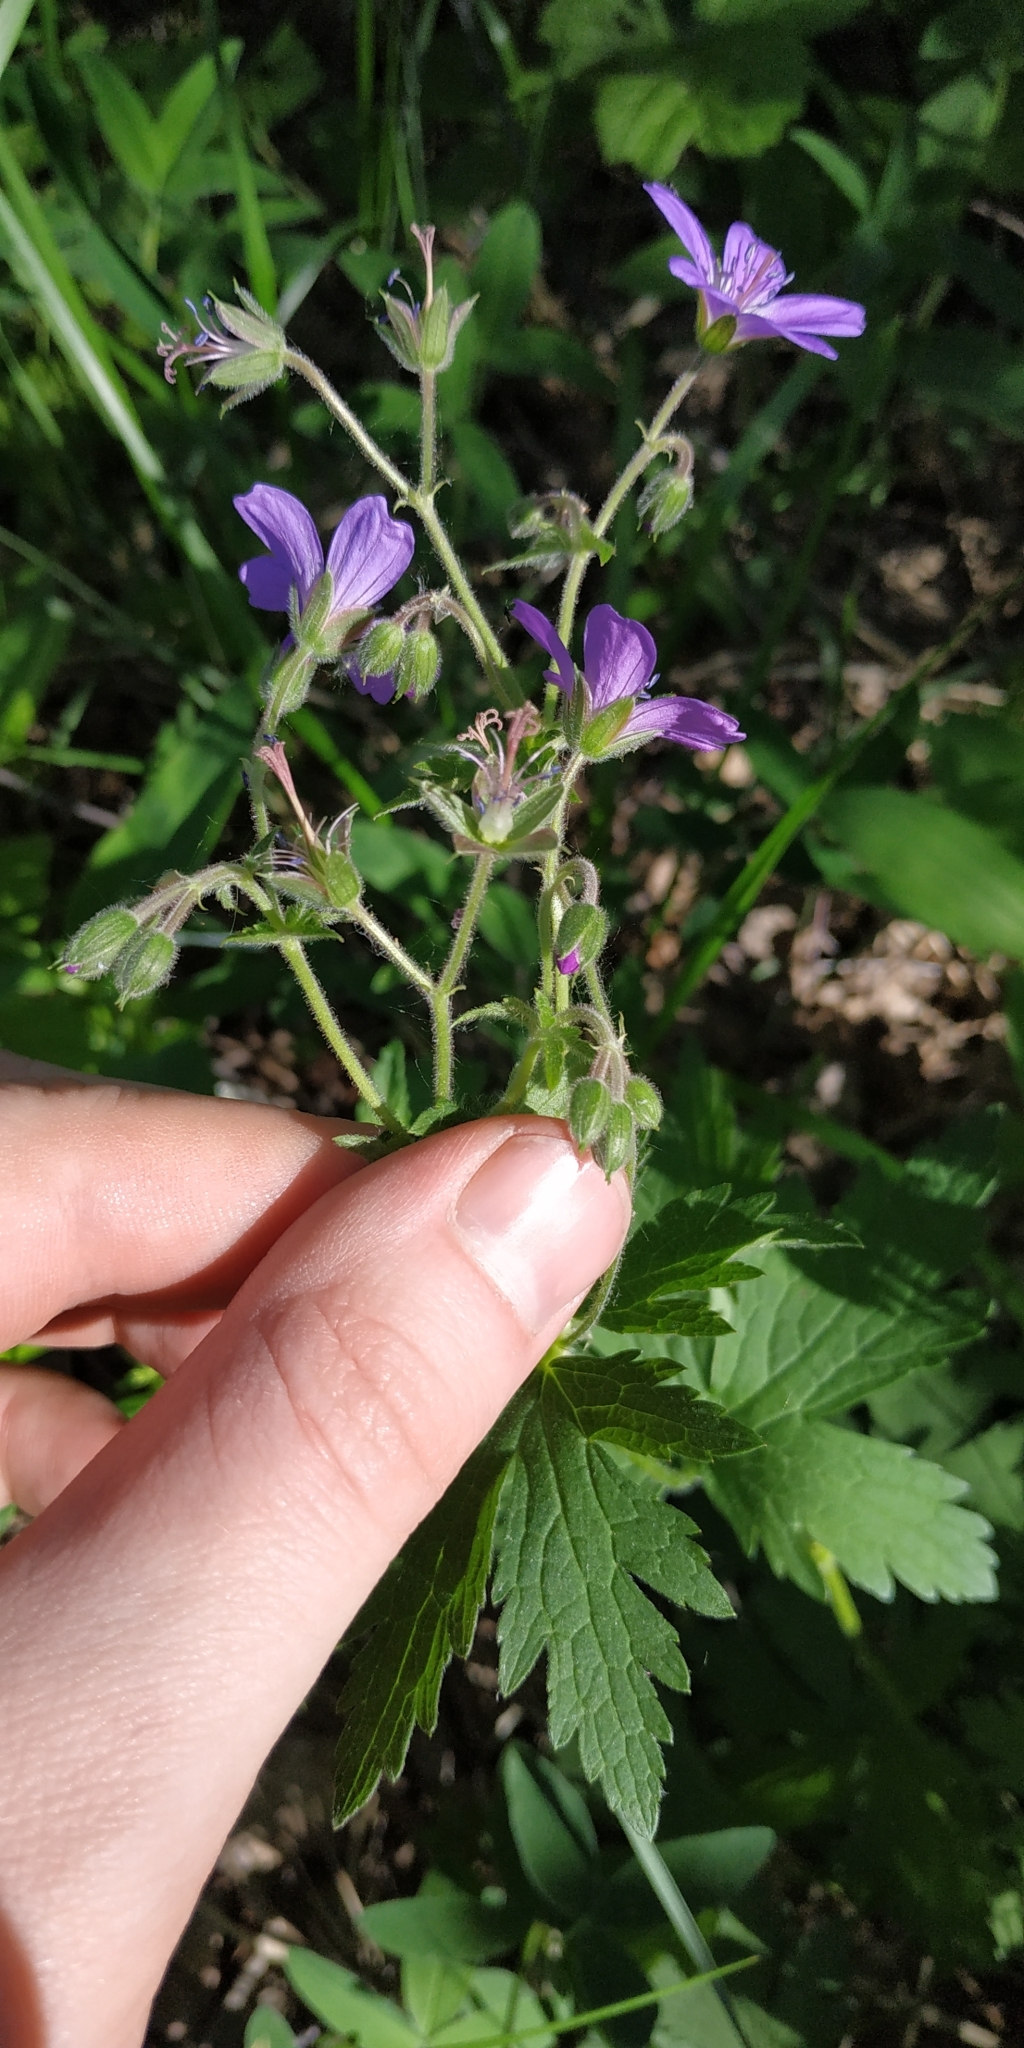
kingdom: Plantae
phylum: Tracheophyta
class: Magnoliopsida
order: Geraniales
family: Geraniaceae
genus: Geranium
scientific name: Geranium sylvaticum
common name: Wood crane's-bill
